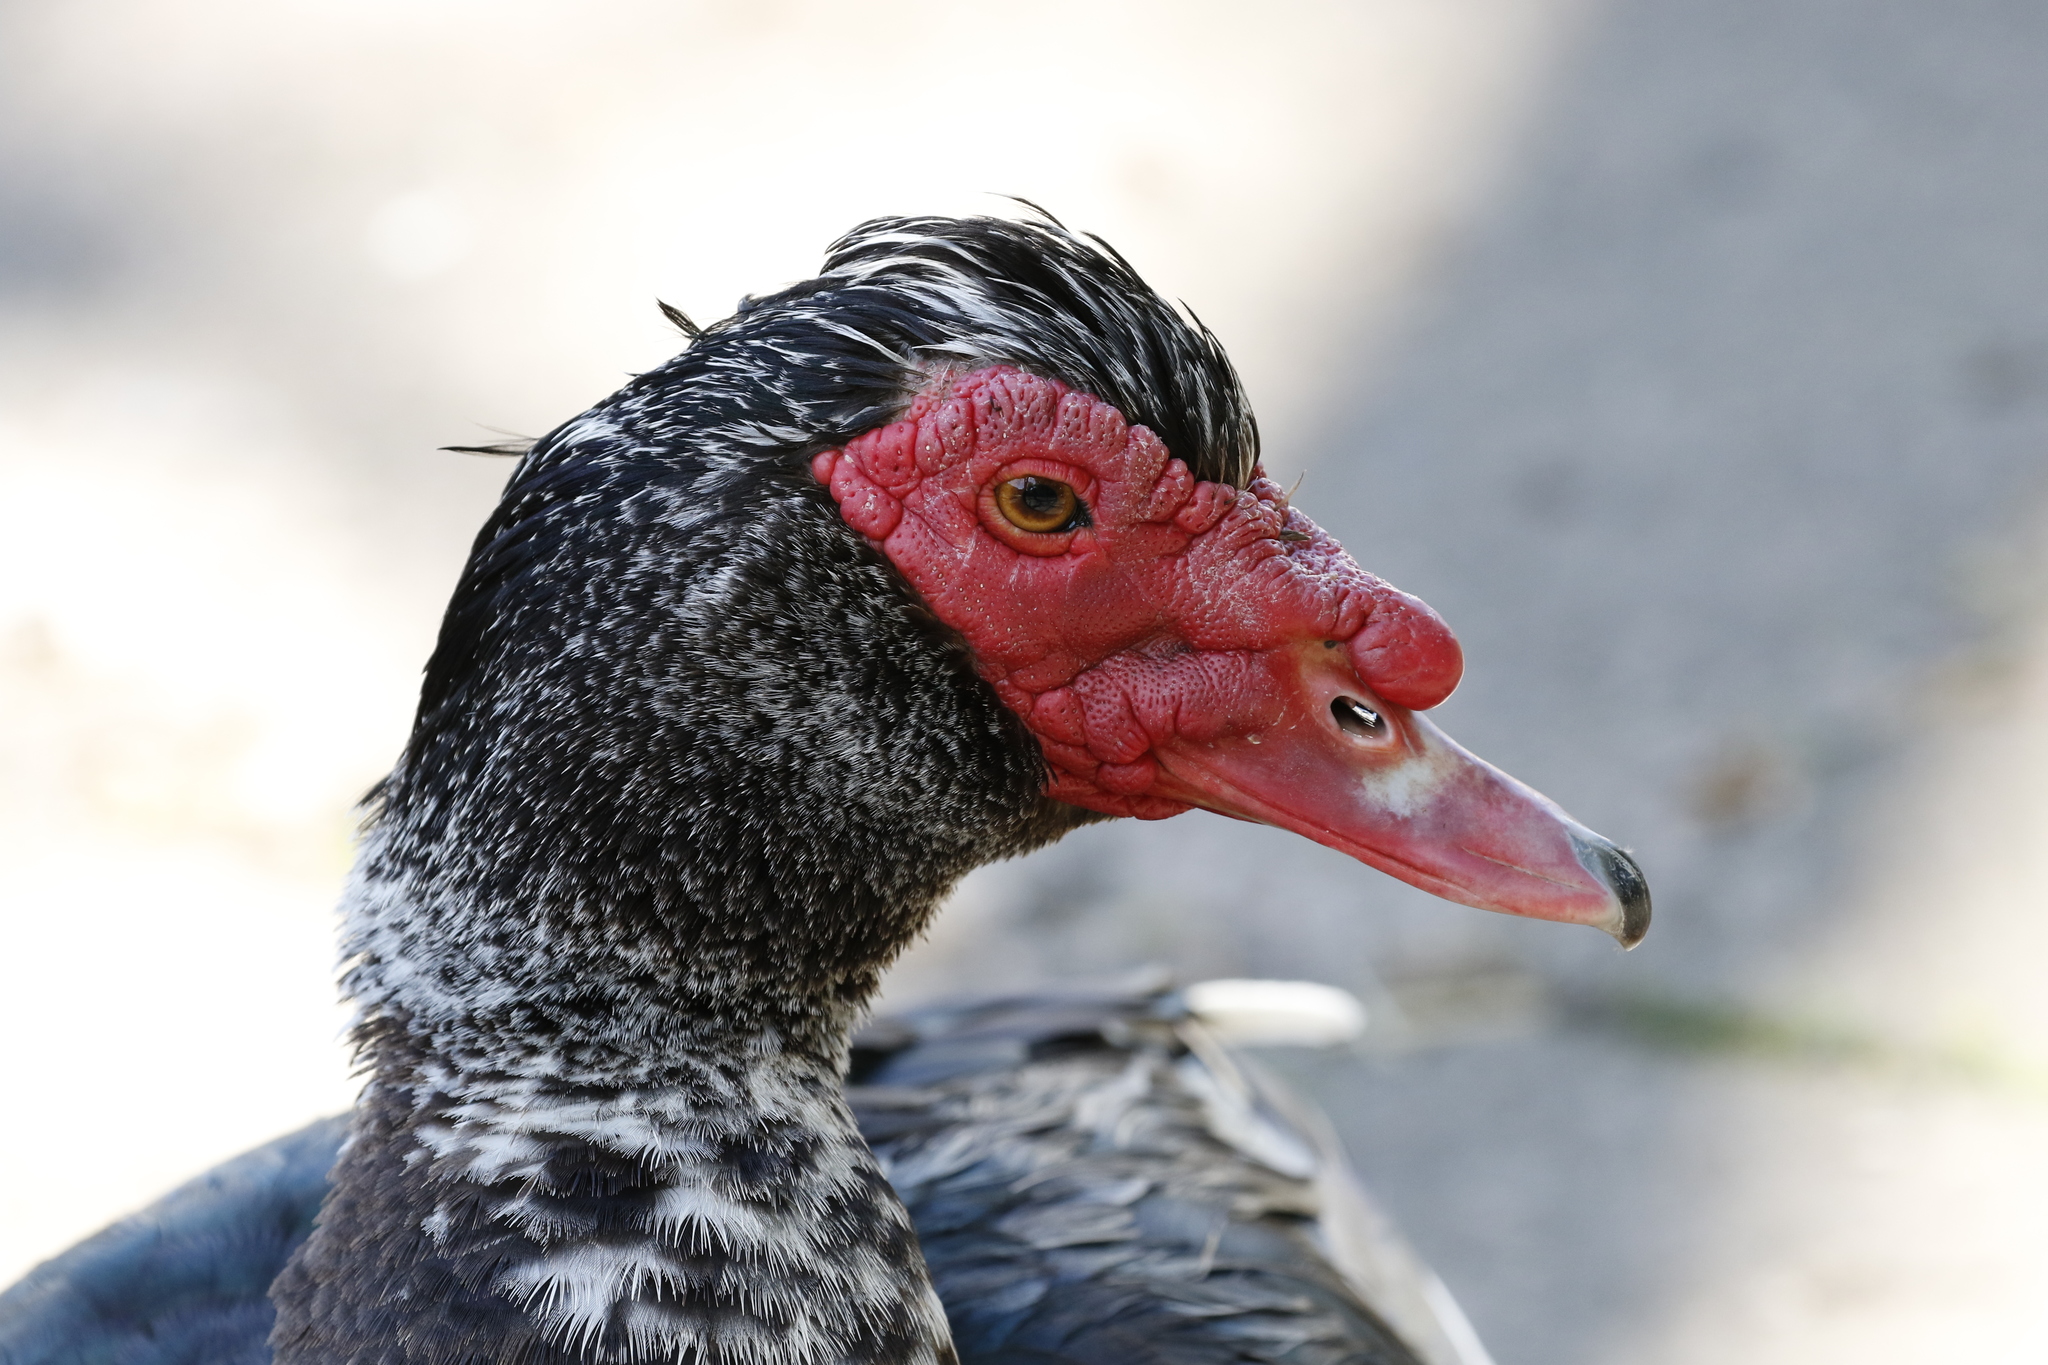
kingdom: Animalia
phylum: Chordata
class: Aves
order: Anseriformes
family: Anatidae
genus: Cairina
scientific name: Cairina moschata
